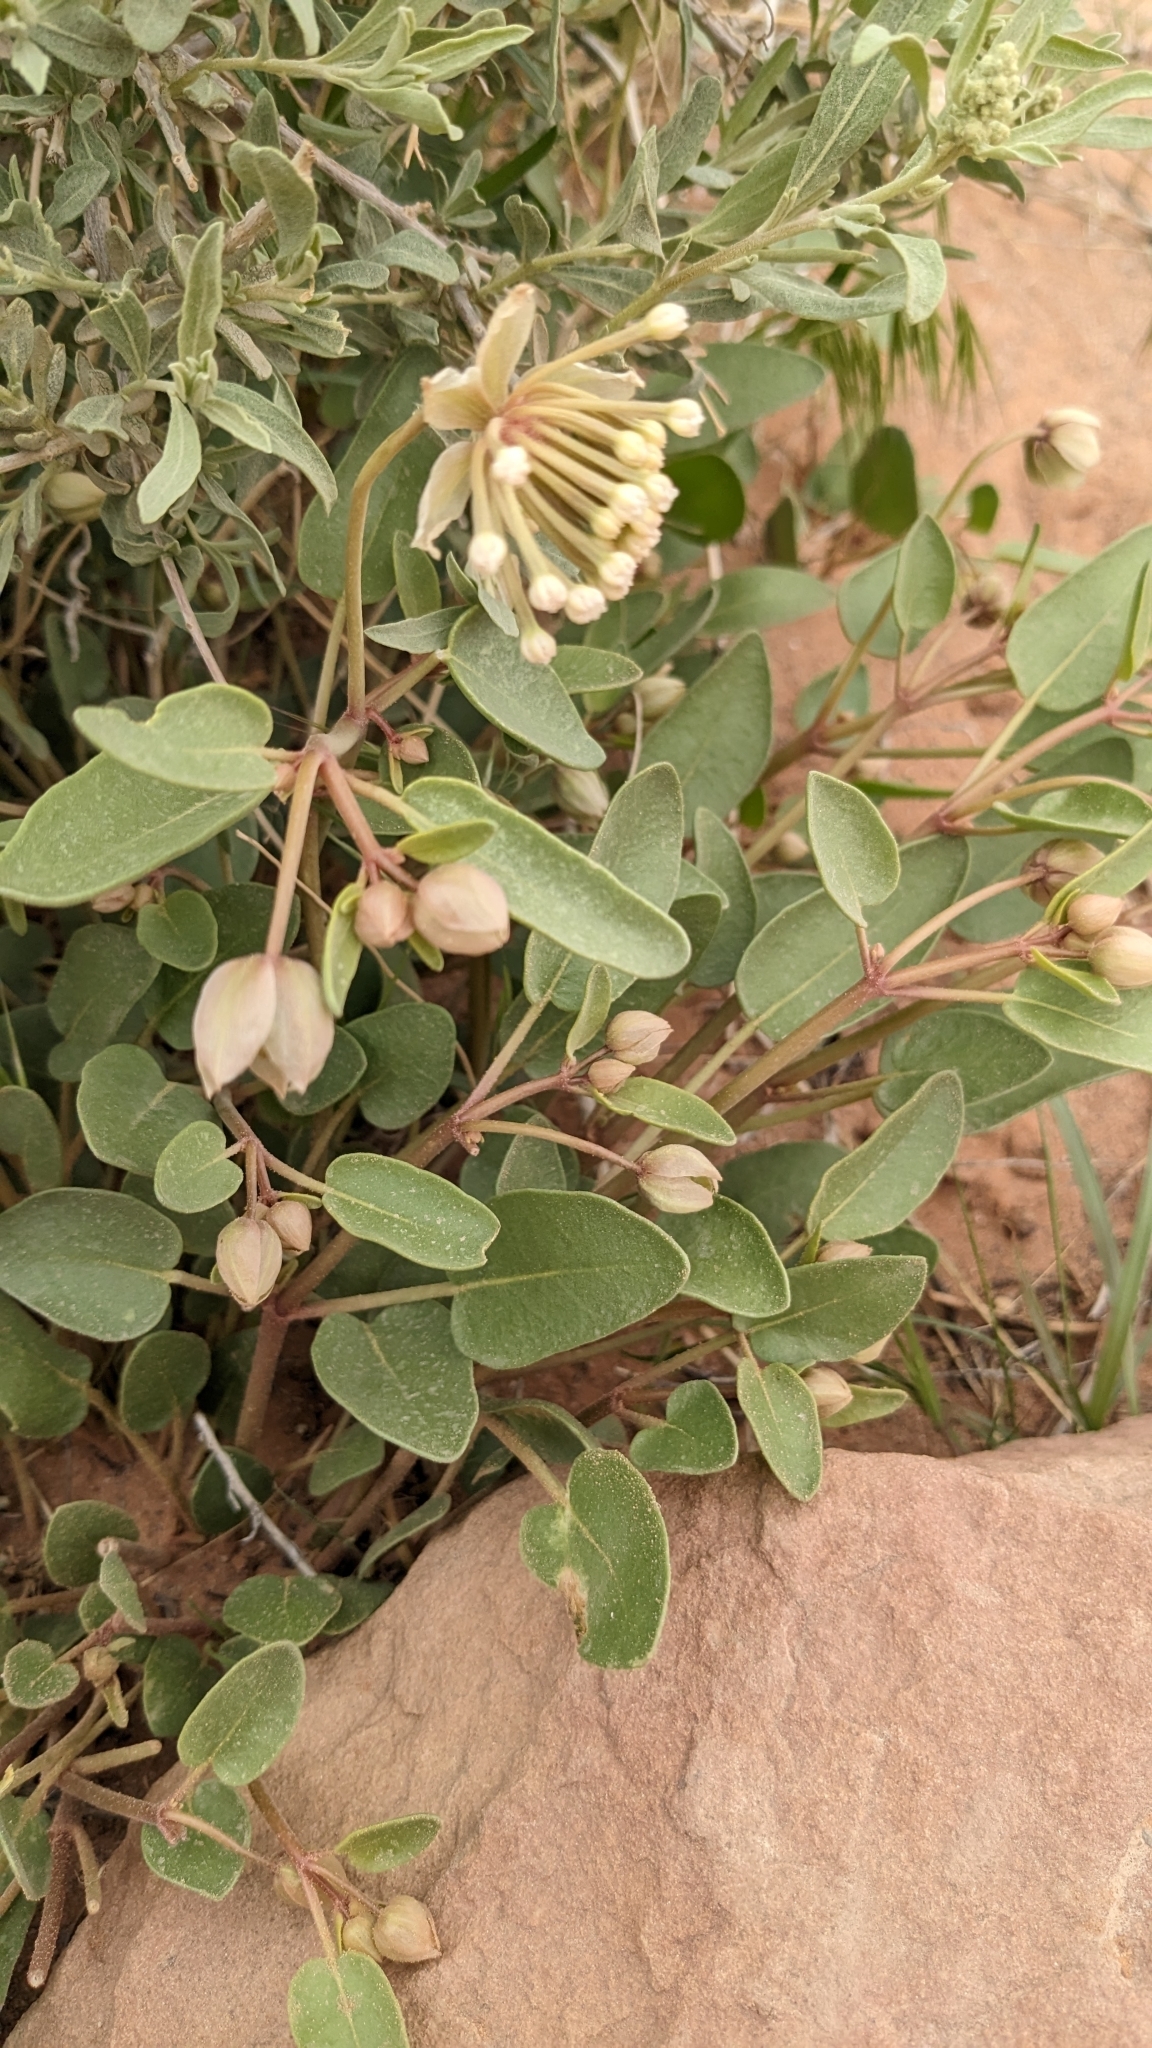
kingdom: Plantae
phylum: Tracheophyta
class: Magnoliopsida
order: Caryophyllales
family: Nyctaginaceae
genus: Abronia
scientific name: Abronia elliptica
